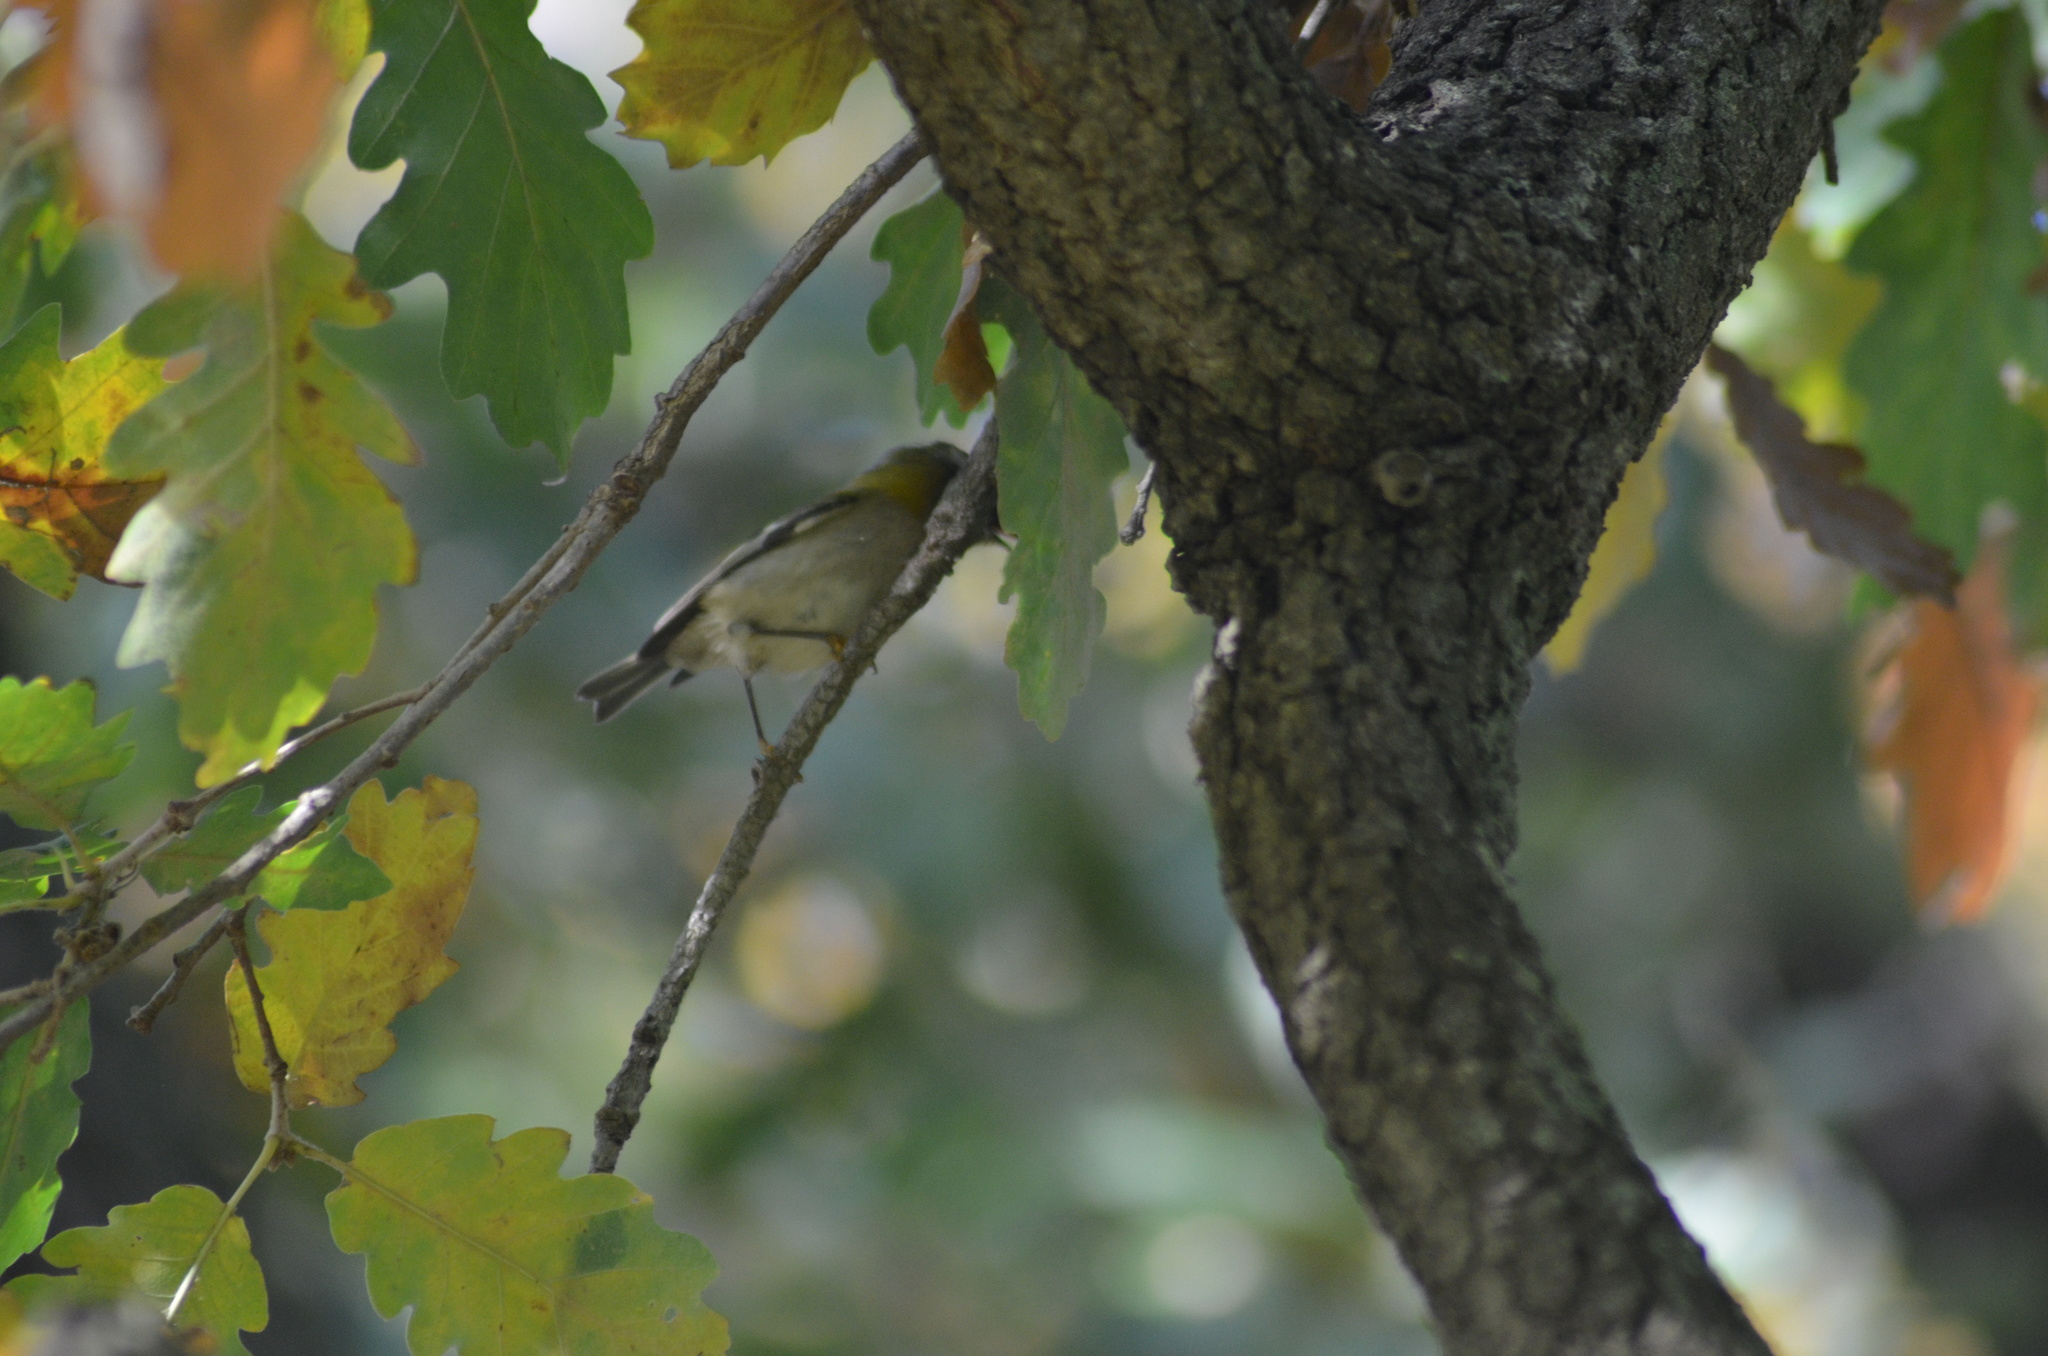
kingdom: Animalia
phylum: Chordata
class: Aves
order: Passeriformes
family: Regulidae
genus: Regulus
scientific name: Regulus ignicapilla
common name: Firecrest
